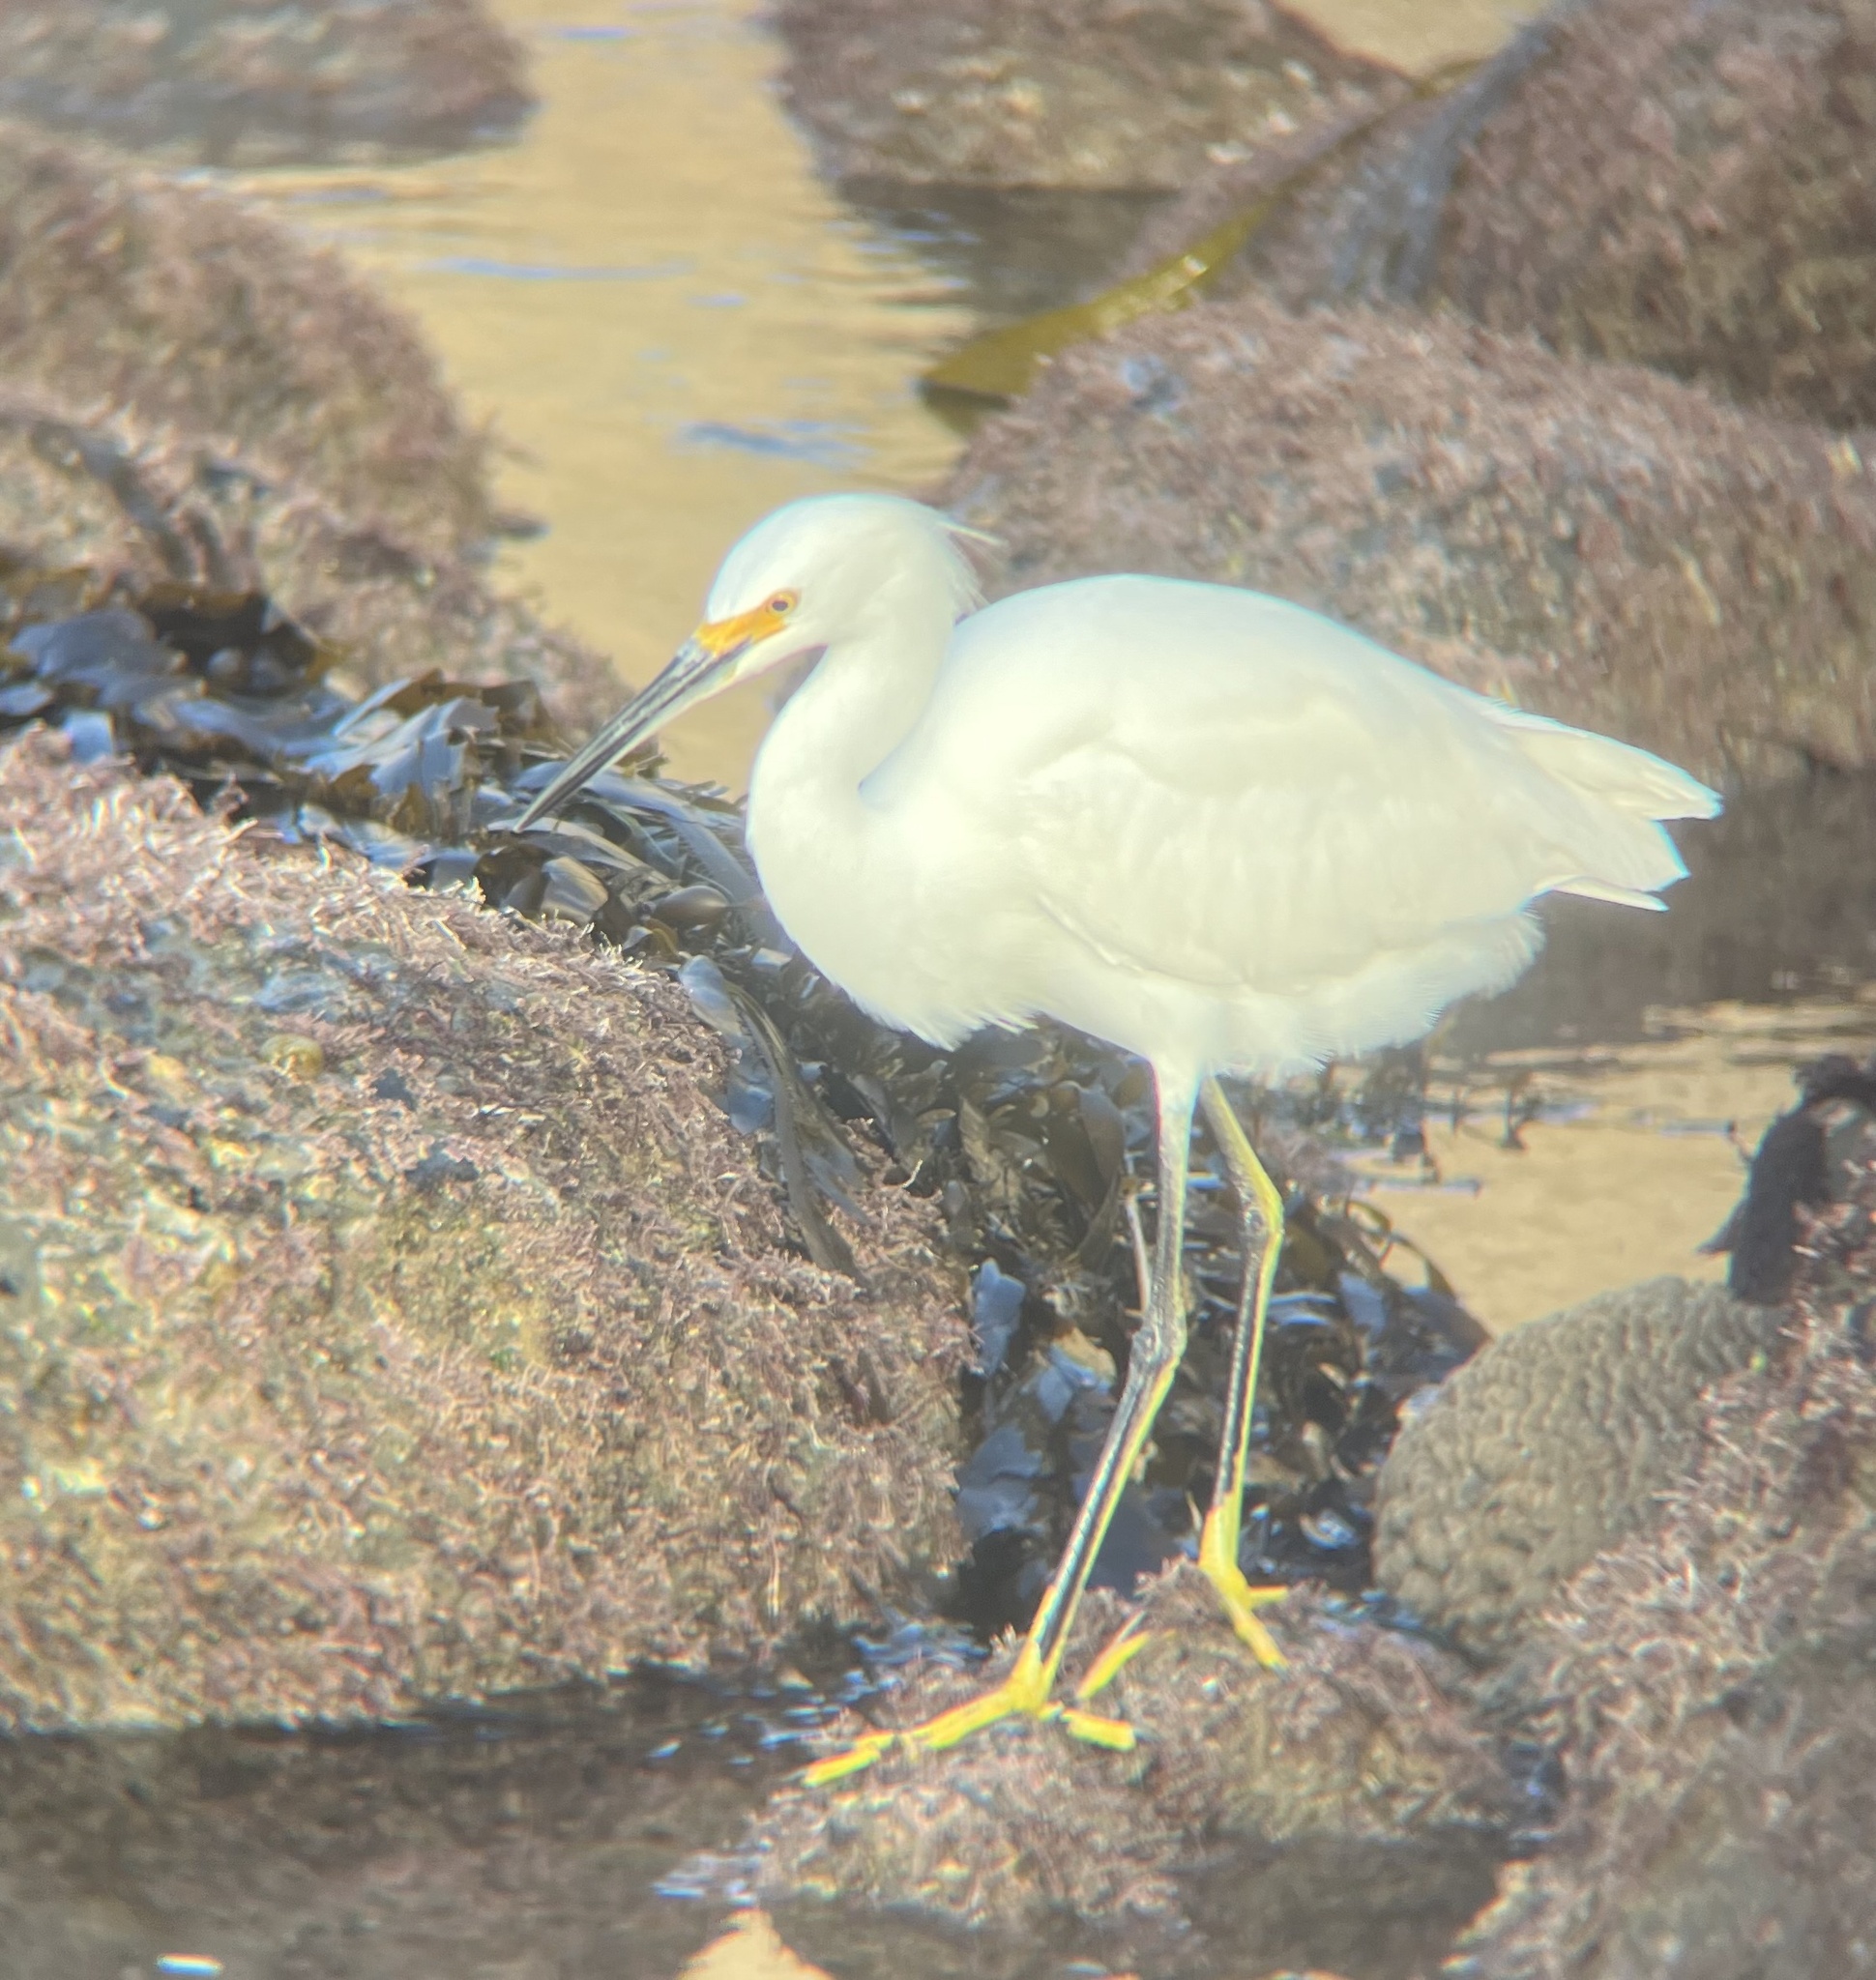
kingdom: Animalia
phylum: Chordata
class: Aves
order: Pelecaniformes
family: Ardeidae
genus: Egretta
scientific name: Egretta thula
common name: Snowy egret
